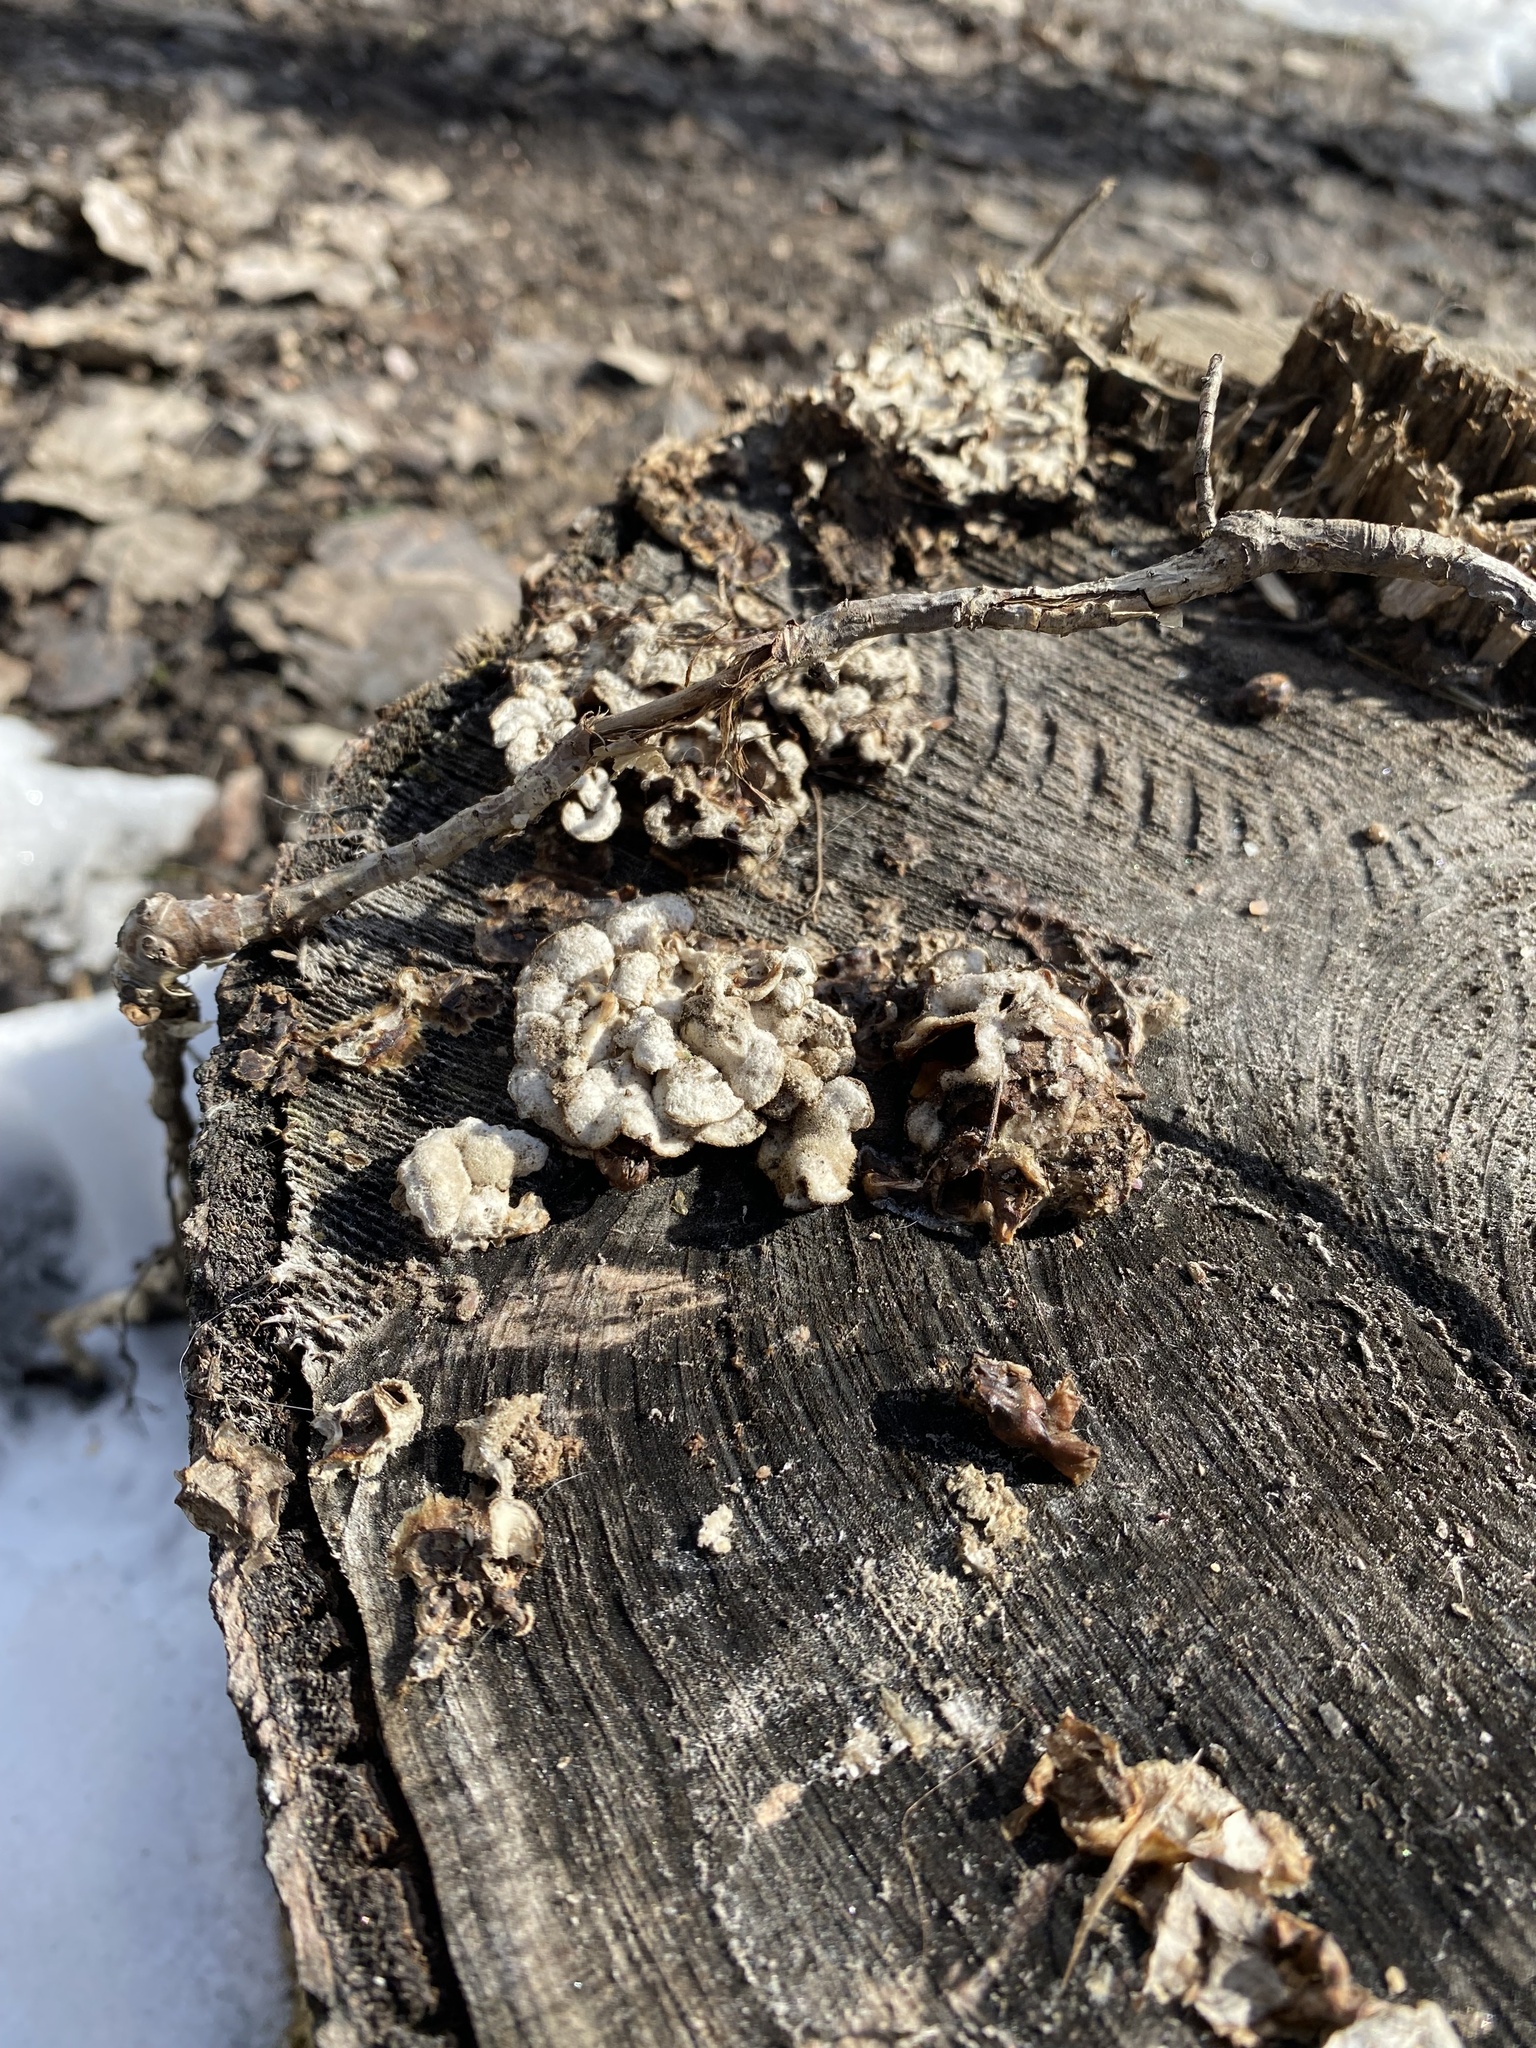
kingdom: Fungi
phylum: Basidiomycota
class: Agaricomycetes
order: Agaricales
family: Cyphellaceae
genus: Chondrostereum
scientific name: Chondrostereum purpureum
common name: Silver leaf disease
